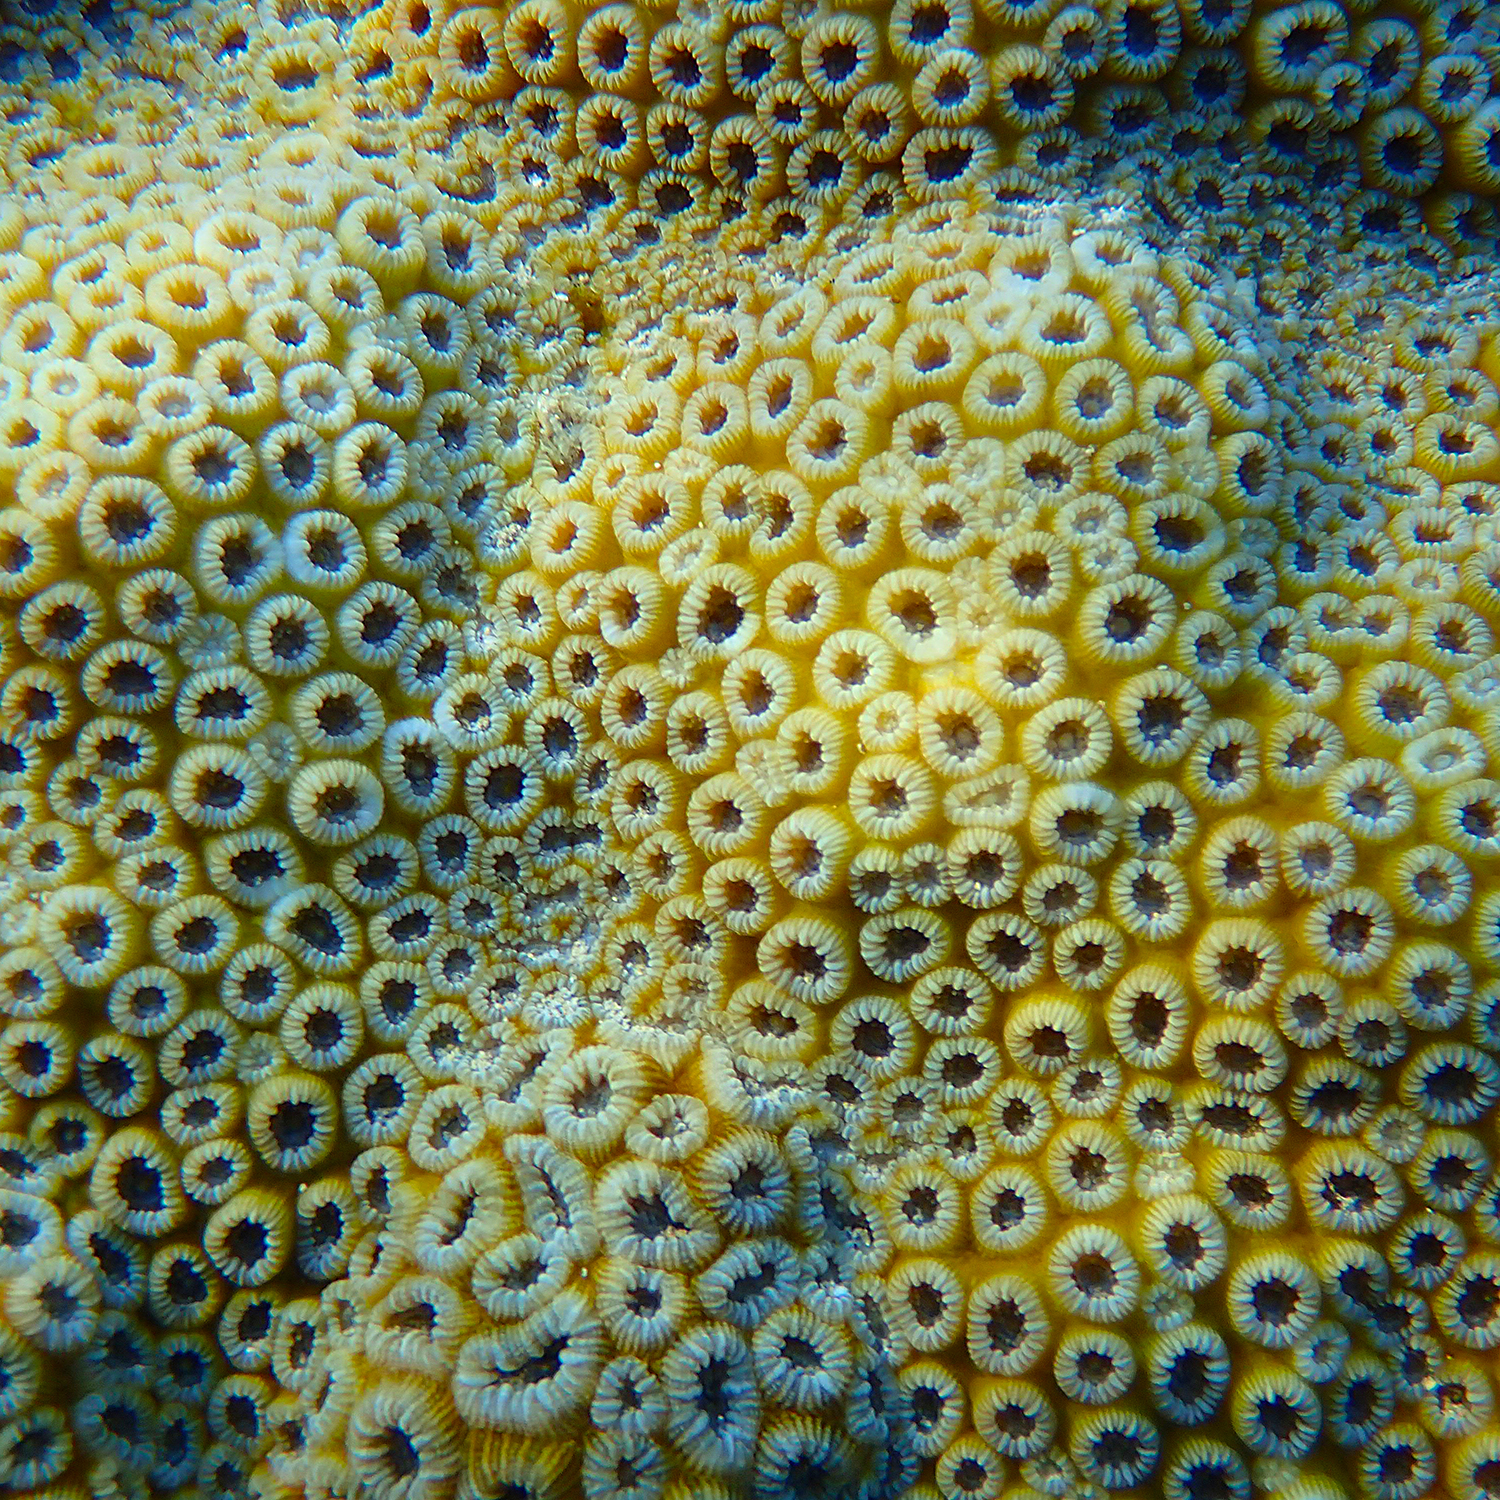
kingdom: Animalia
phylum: Cnidaria
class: Anthozoa
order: Scleractinia
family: Merulinidae
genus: Astrea
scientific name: Astrea curta
